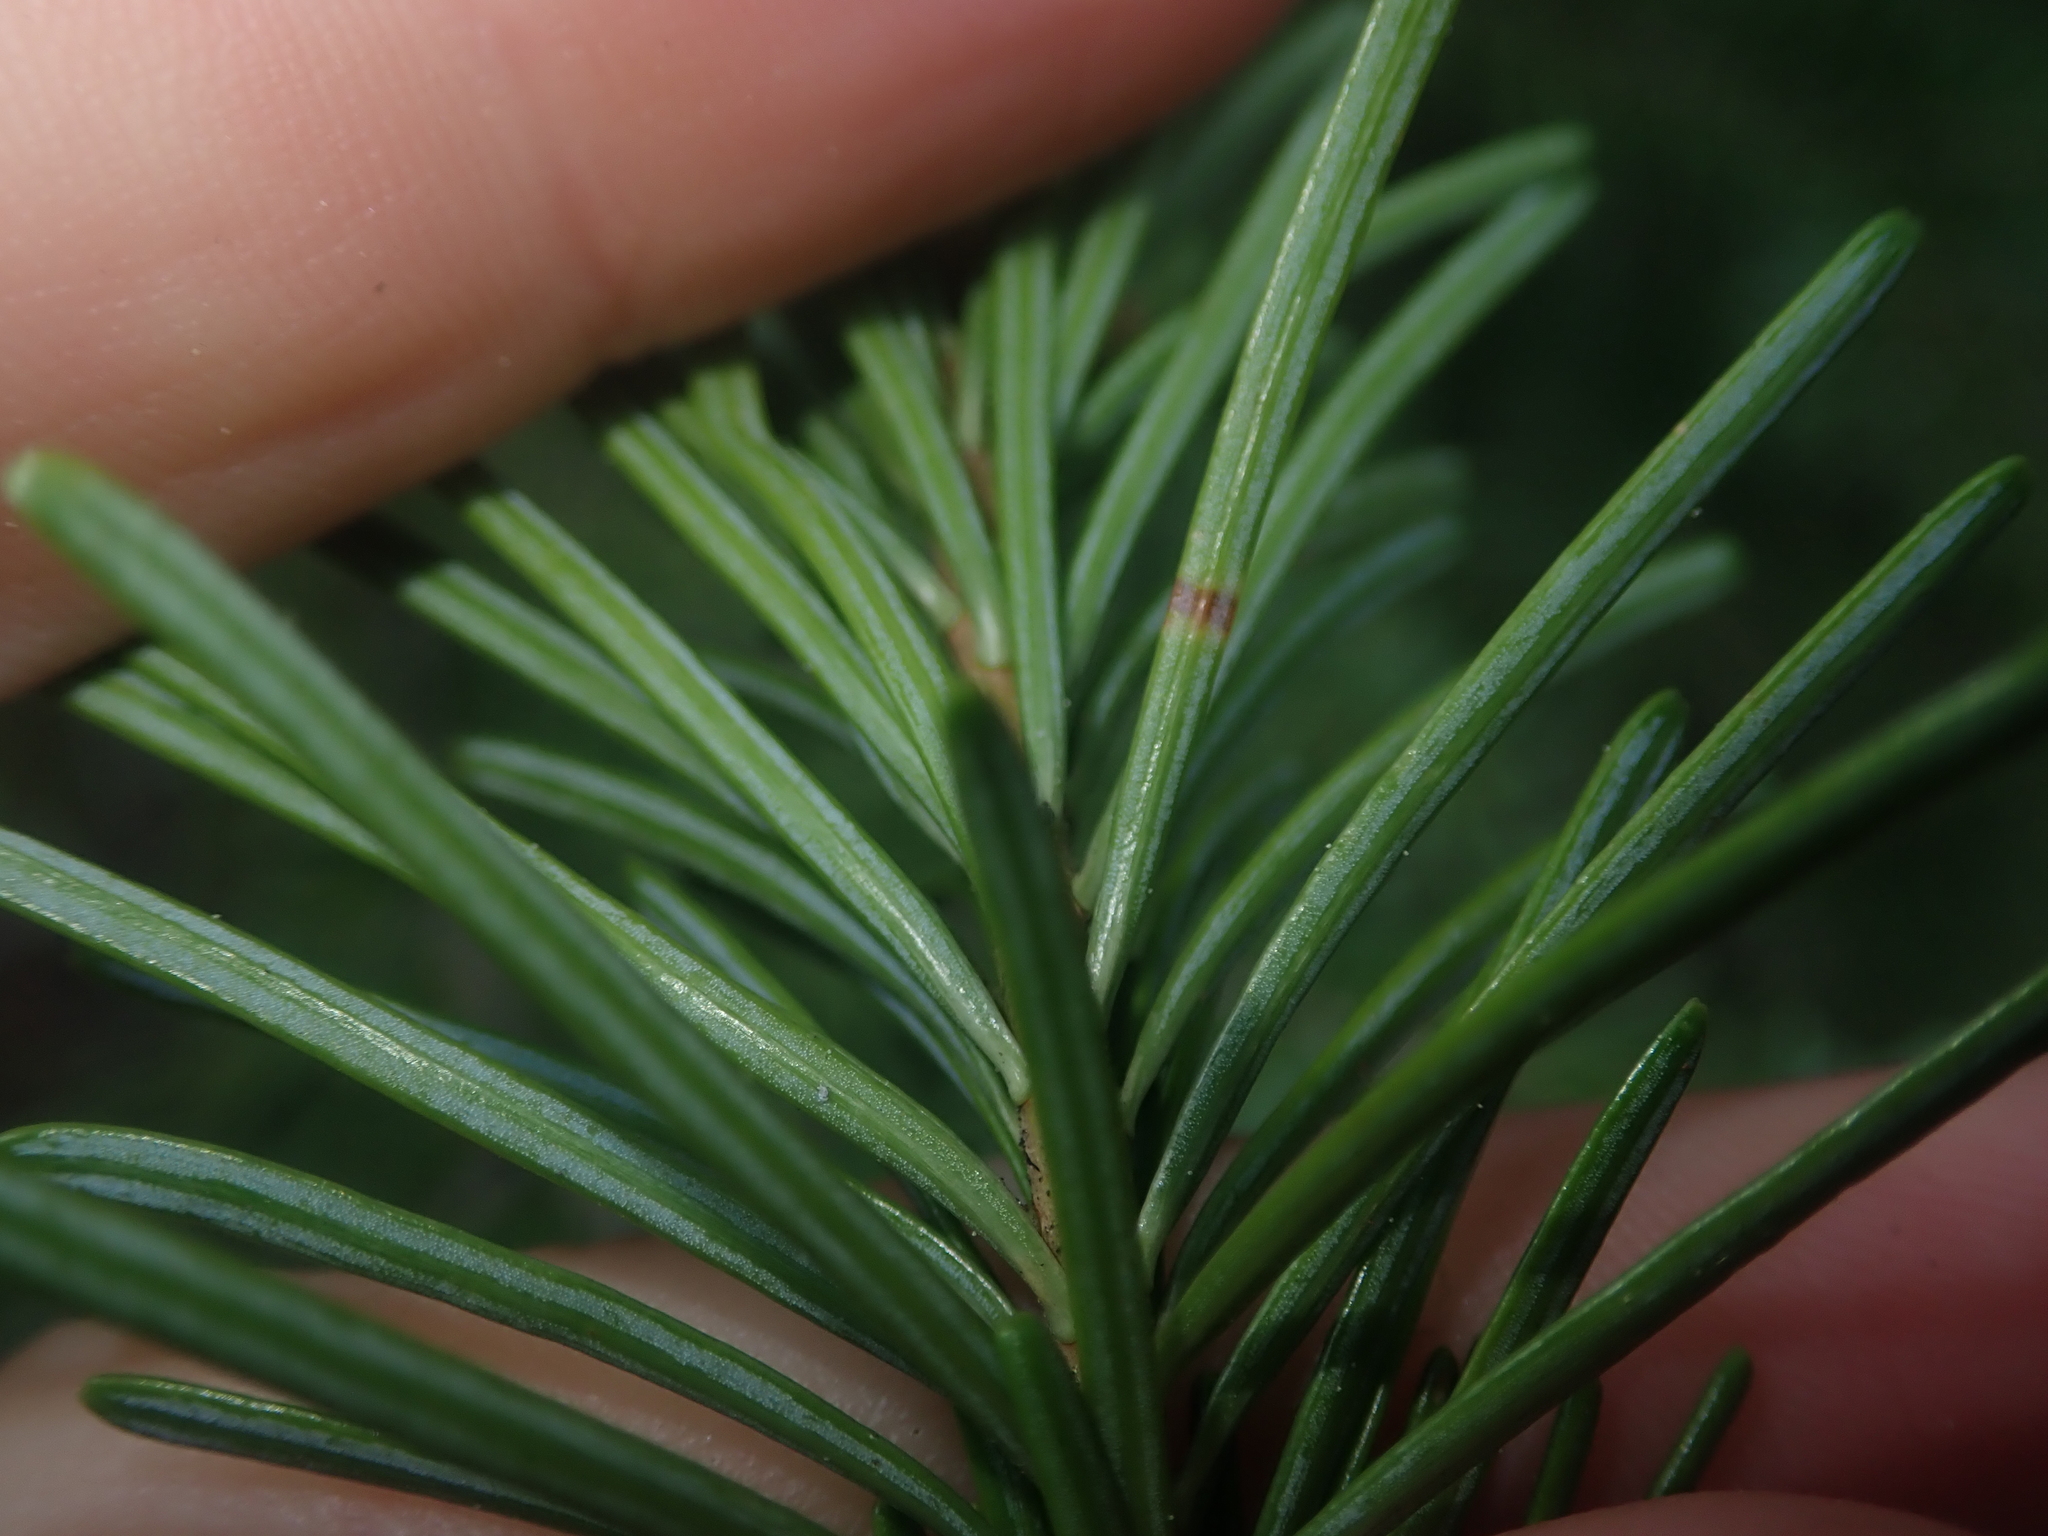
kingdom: Plantae
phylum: Tracheophyta
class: Pinopsida
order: Pinales
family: Pinaceae
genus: Abies
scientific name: Abies lasiocarpa
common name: Subalpine fir
